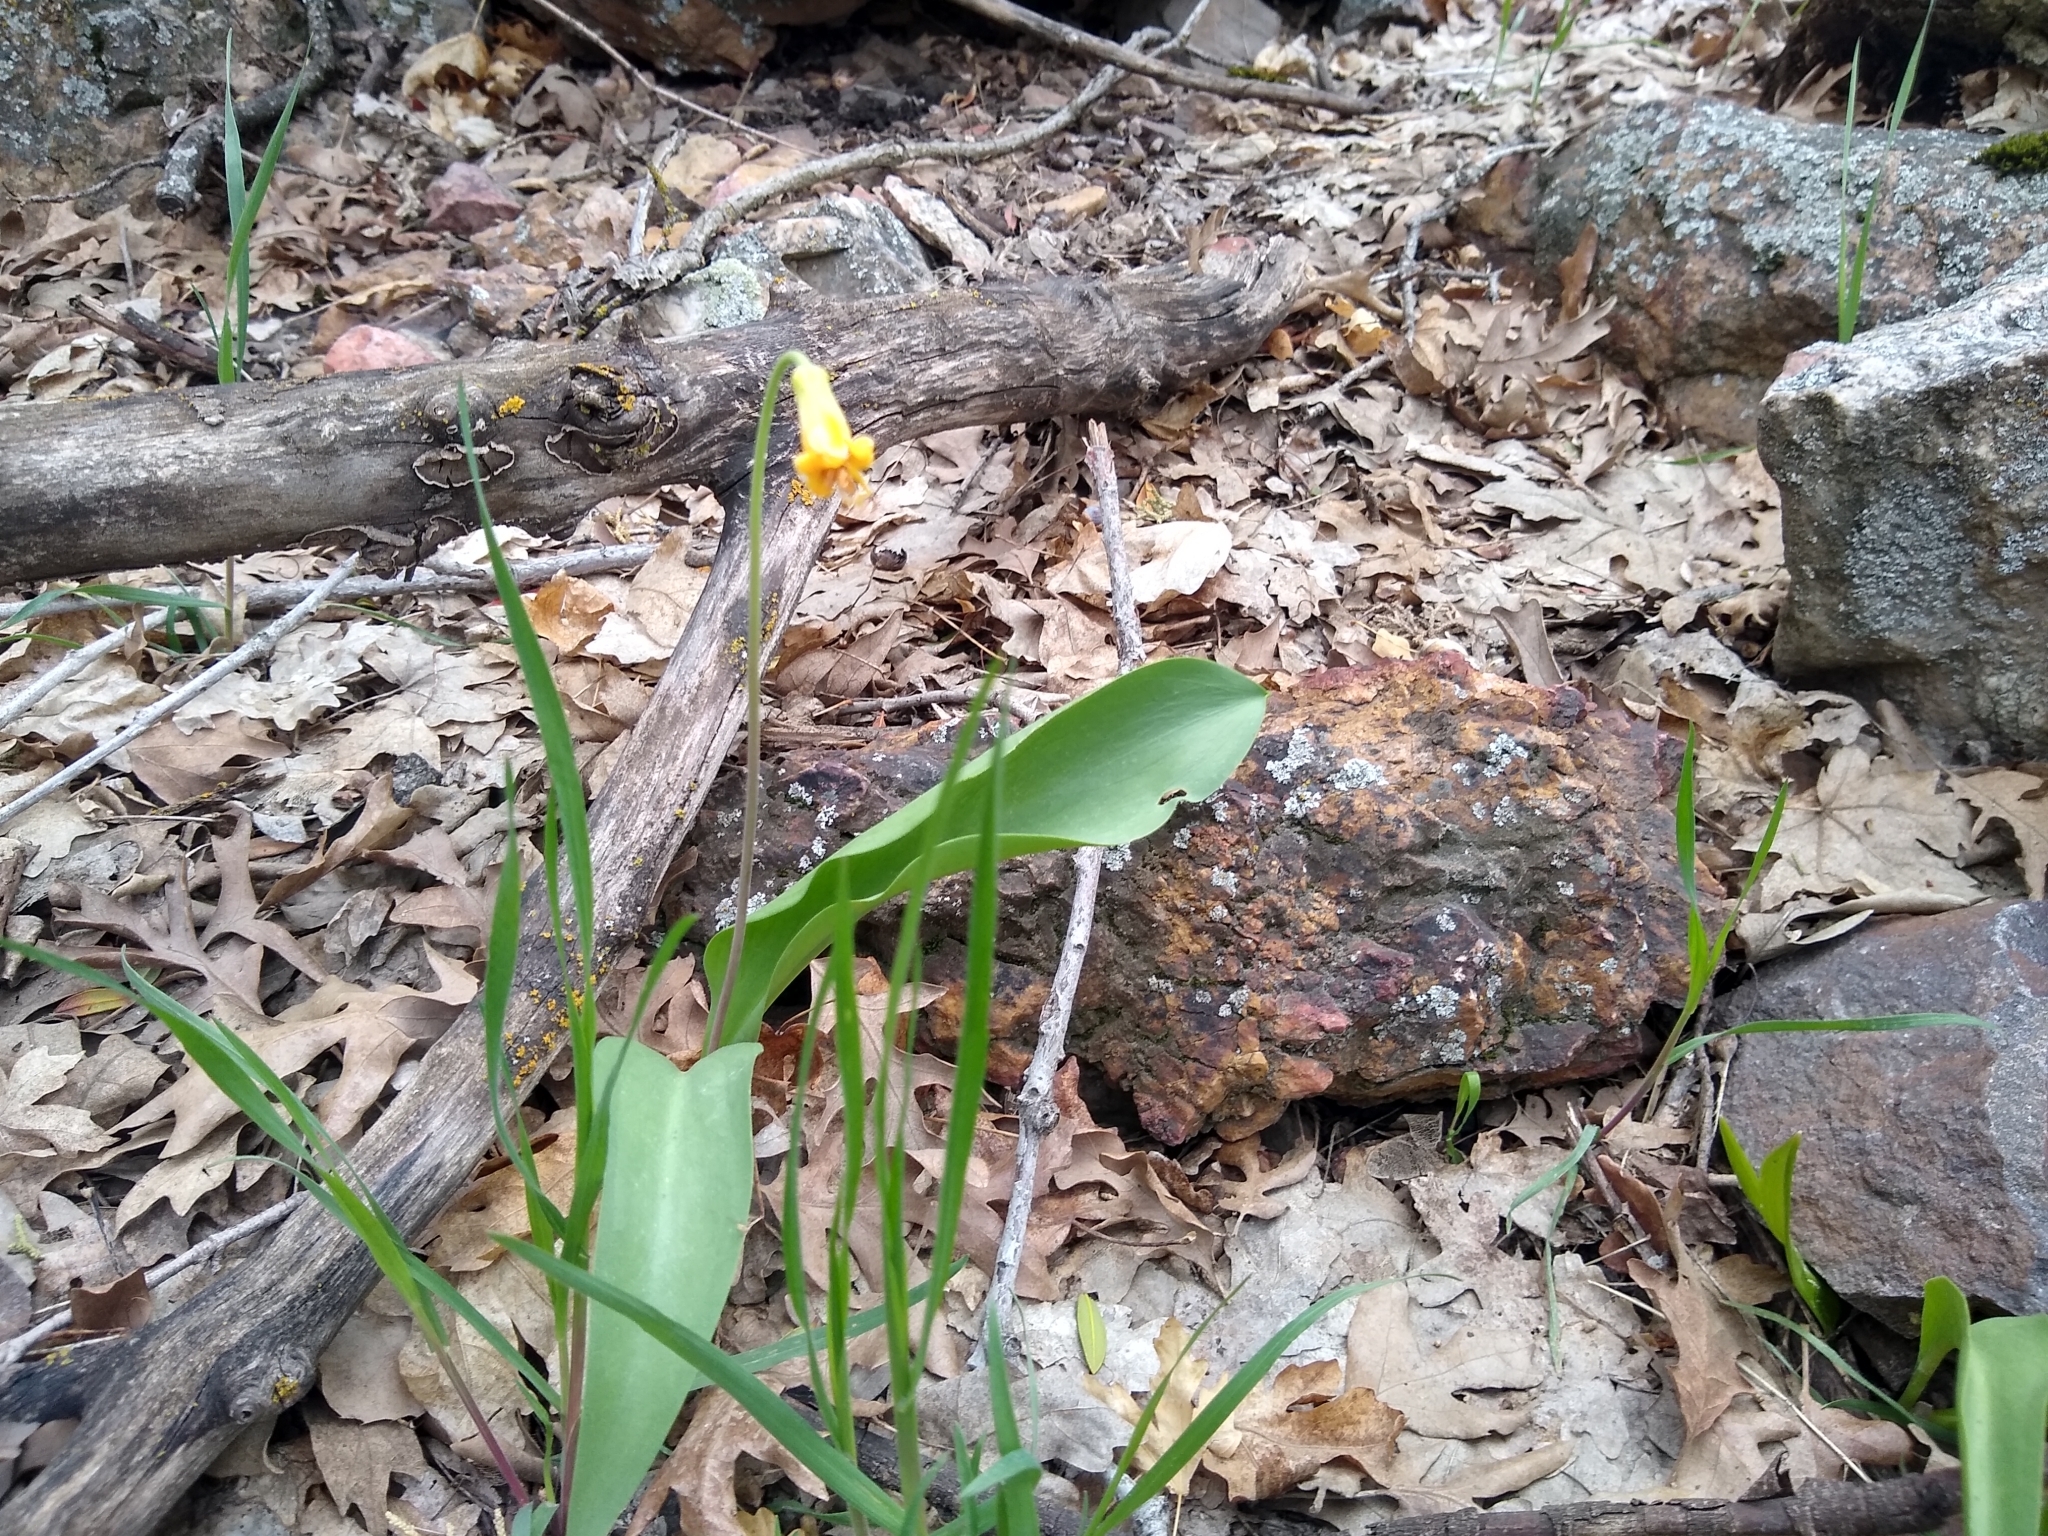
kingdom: Plantae
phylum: Tracheophyta
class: Liliopsida
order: Liliales
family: Liliaceae
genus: Erythronium
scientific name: Erythronium grandiflorum
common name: Avalanche-lily
